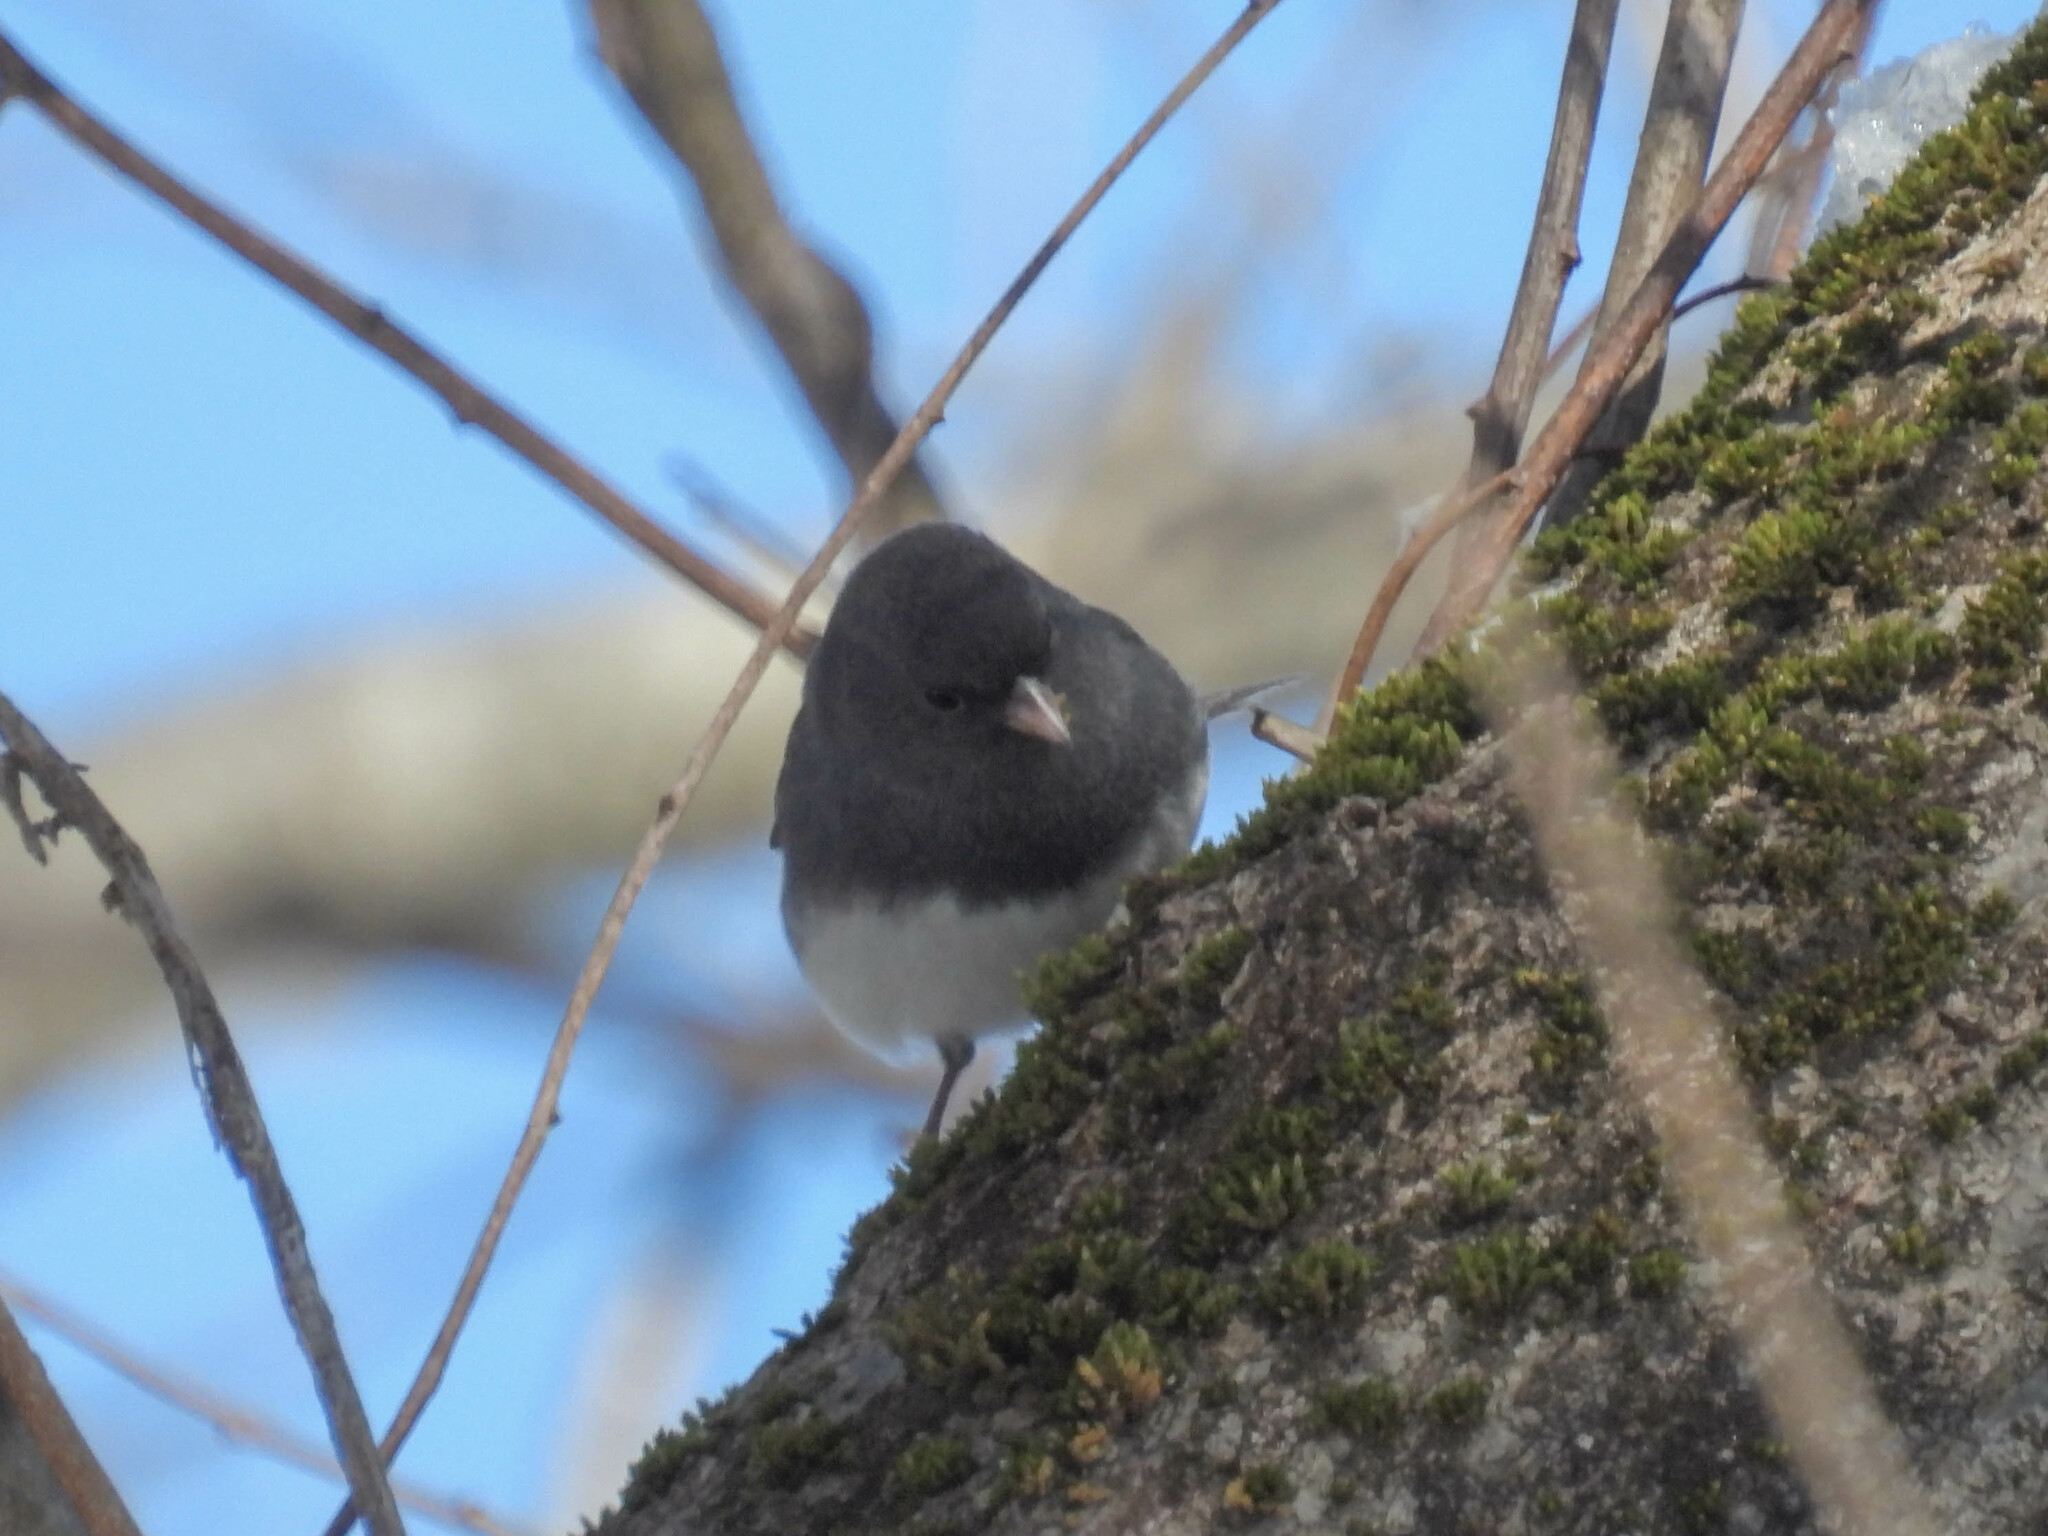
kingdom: Animalia
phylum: Chordata
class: Aves
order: Passeriformes
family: Passerellidae
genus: Junco
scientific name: Junco hyemalis
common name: Dark-eyed junco
